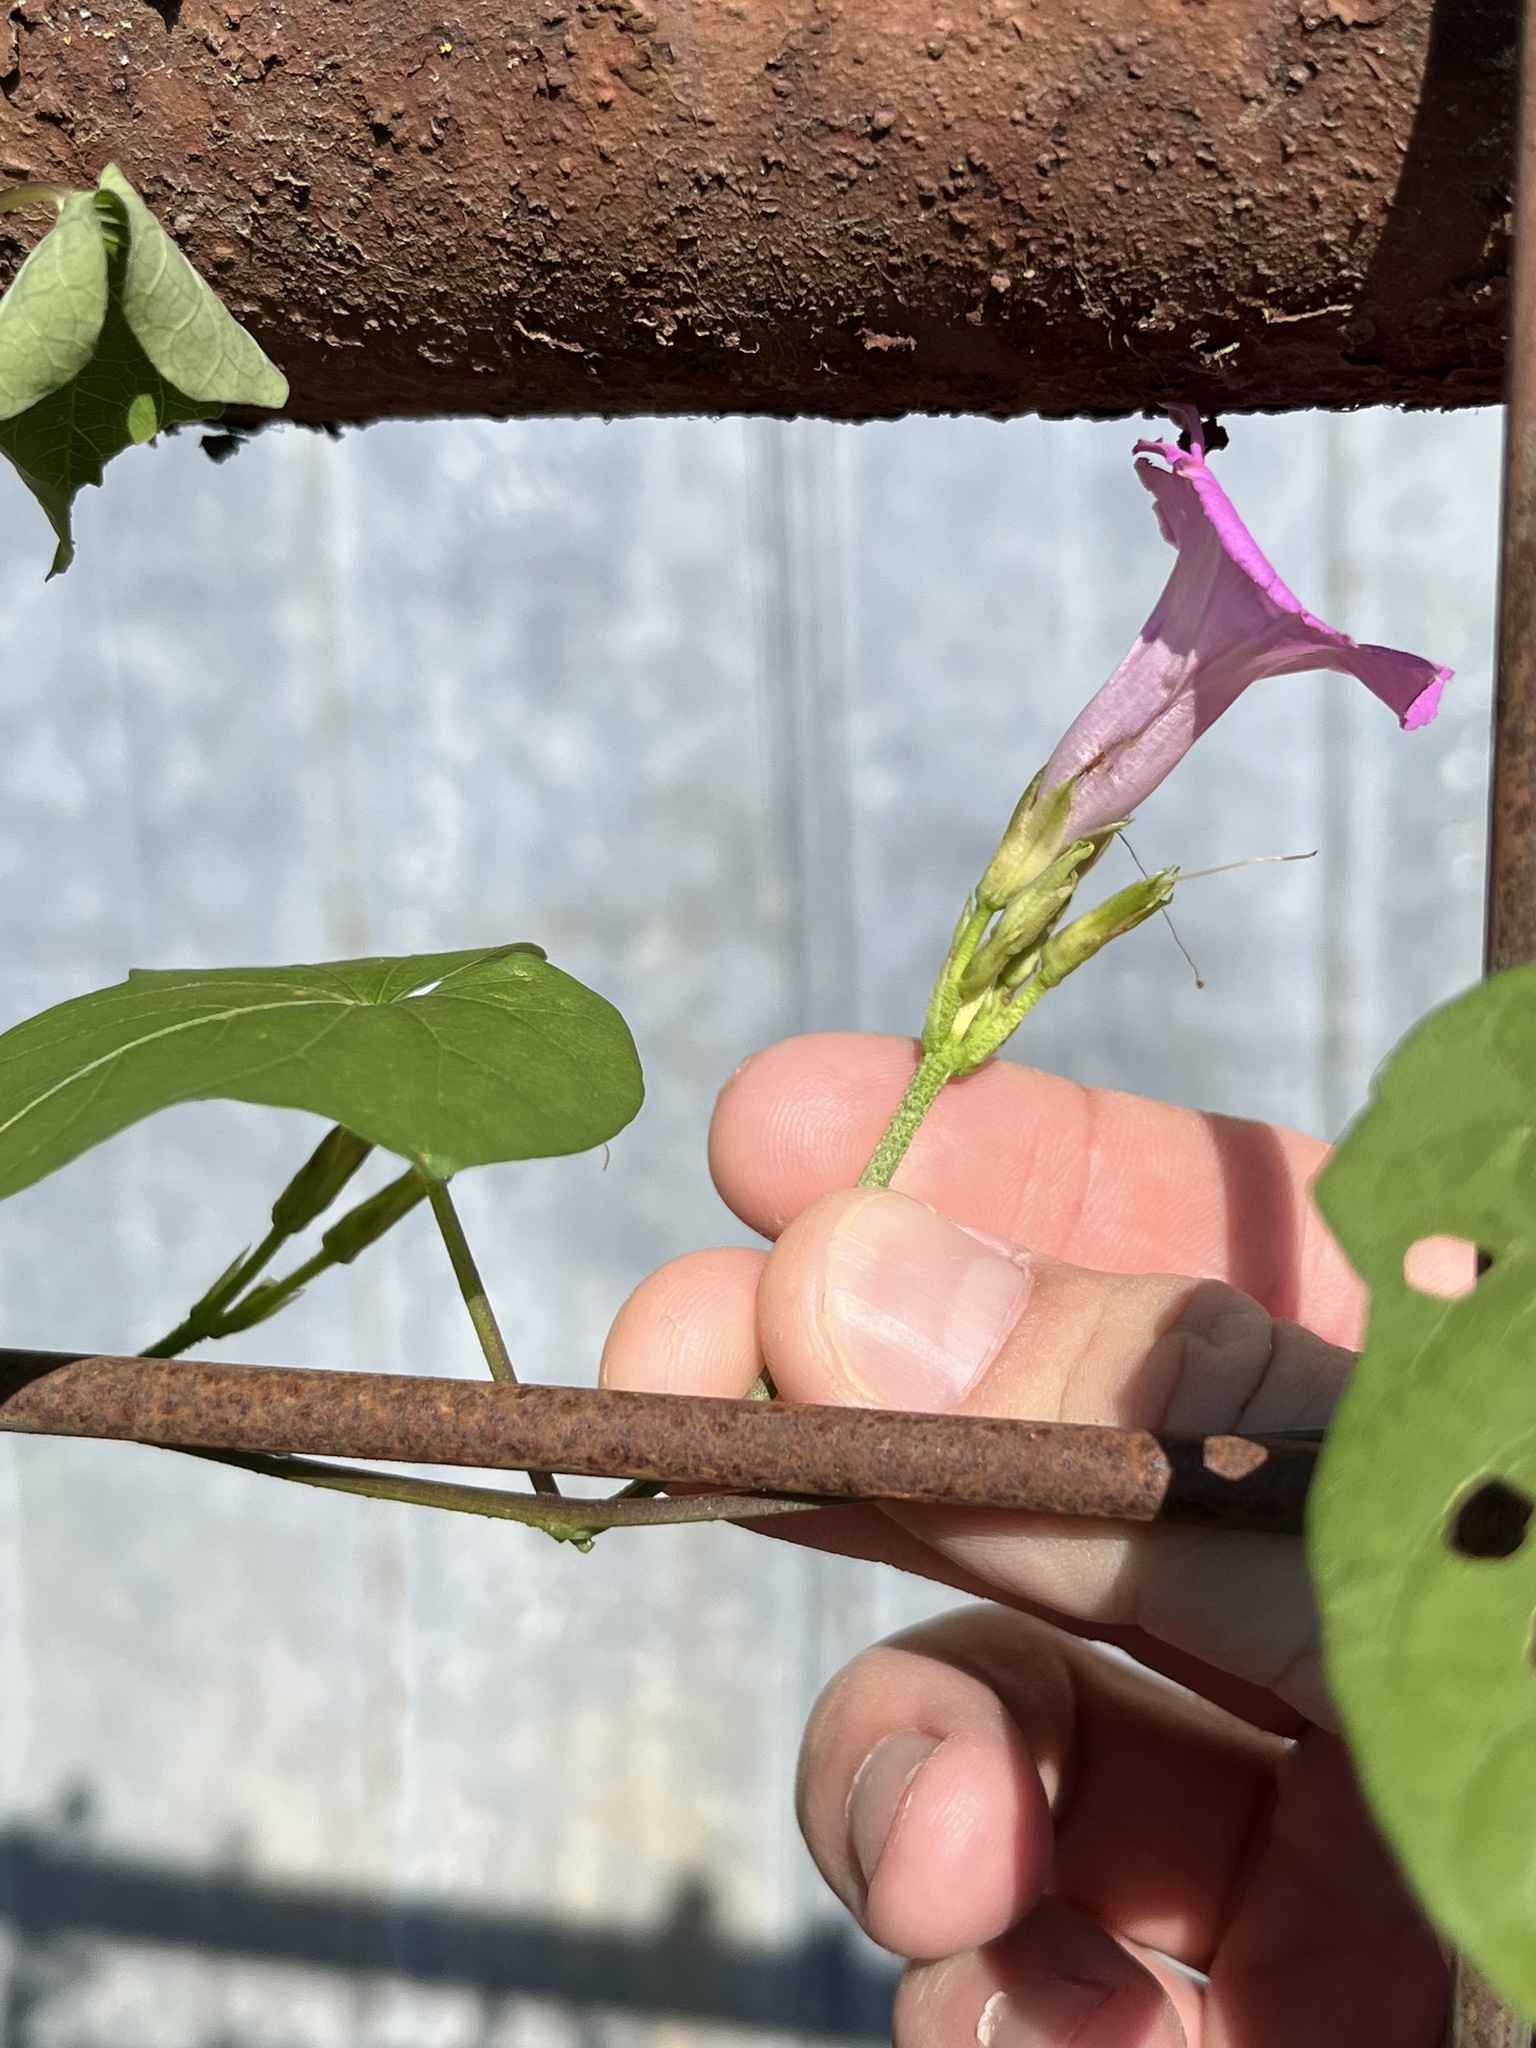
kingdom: Plantae
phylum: Tracheophyta
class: Magnoliopsida
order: Solanales
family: Convolvulaceae
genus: Ipomoea
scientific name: Ipomoea cordatotriloba
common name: Cotton morning glory
